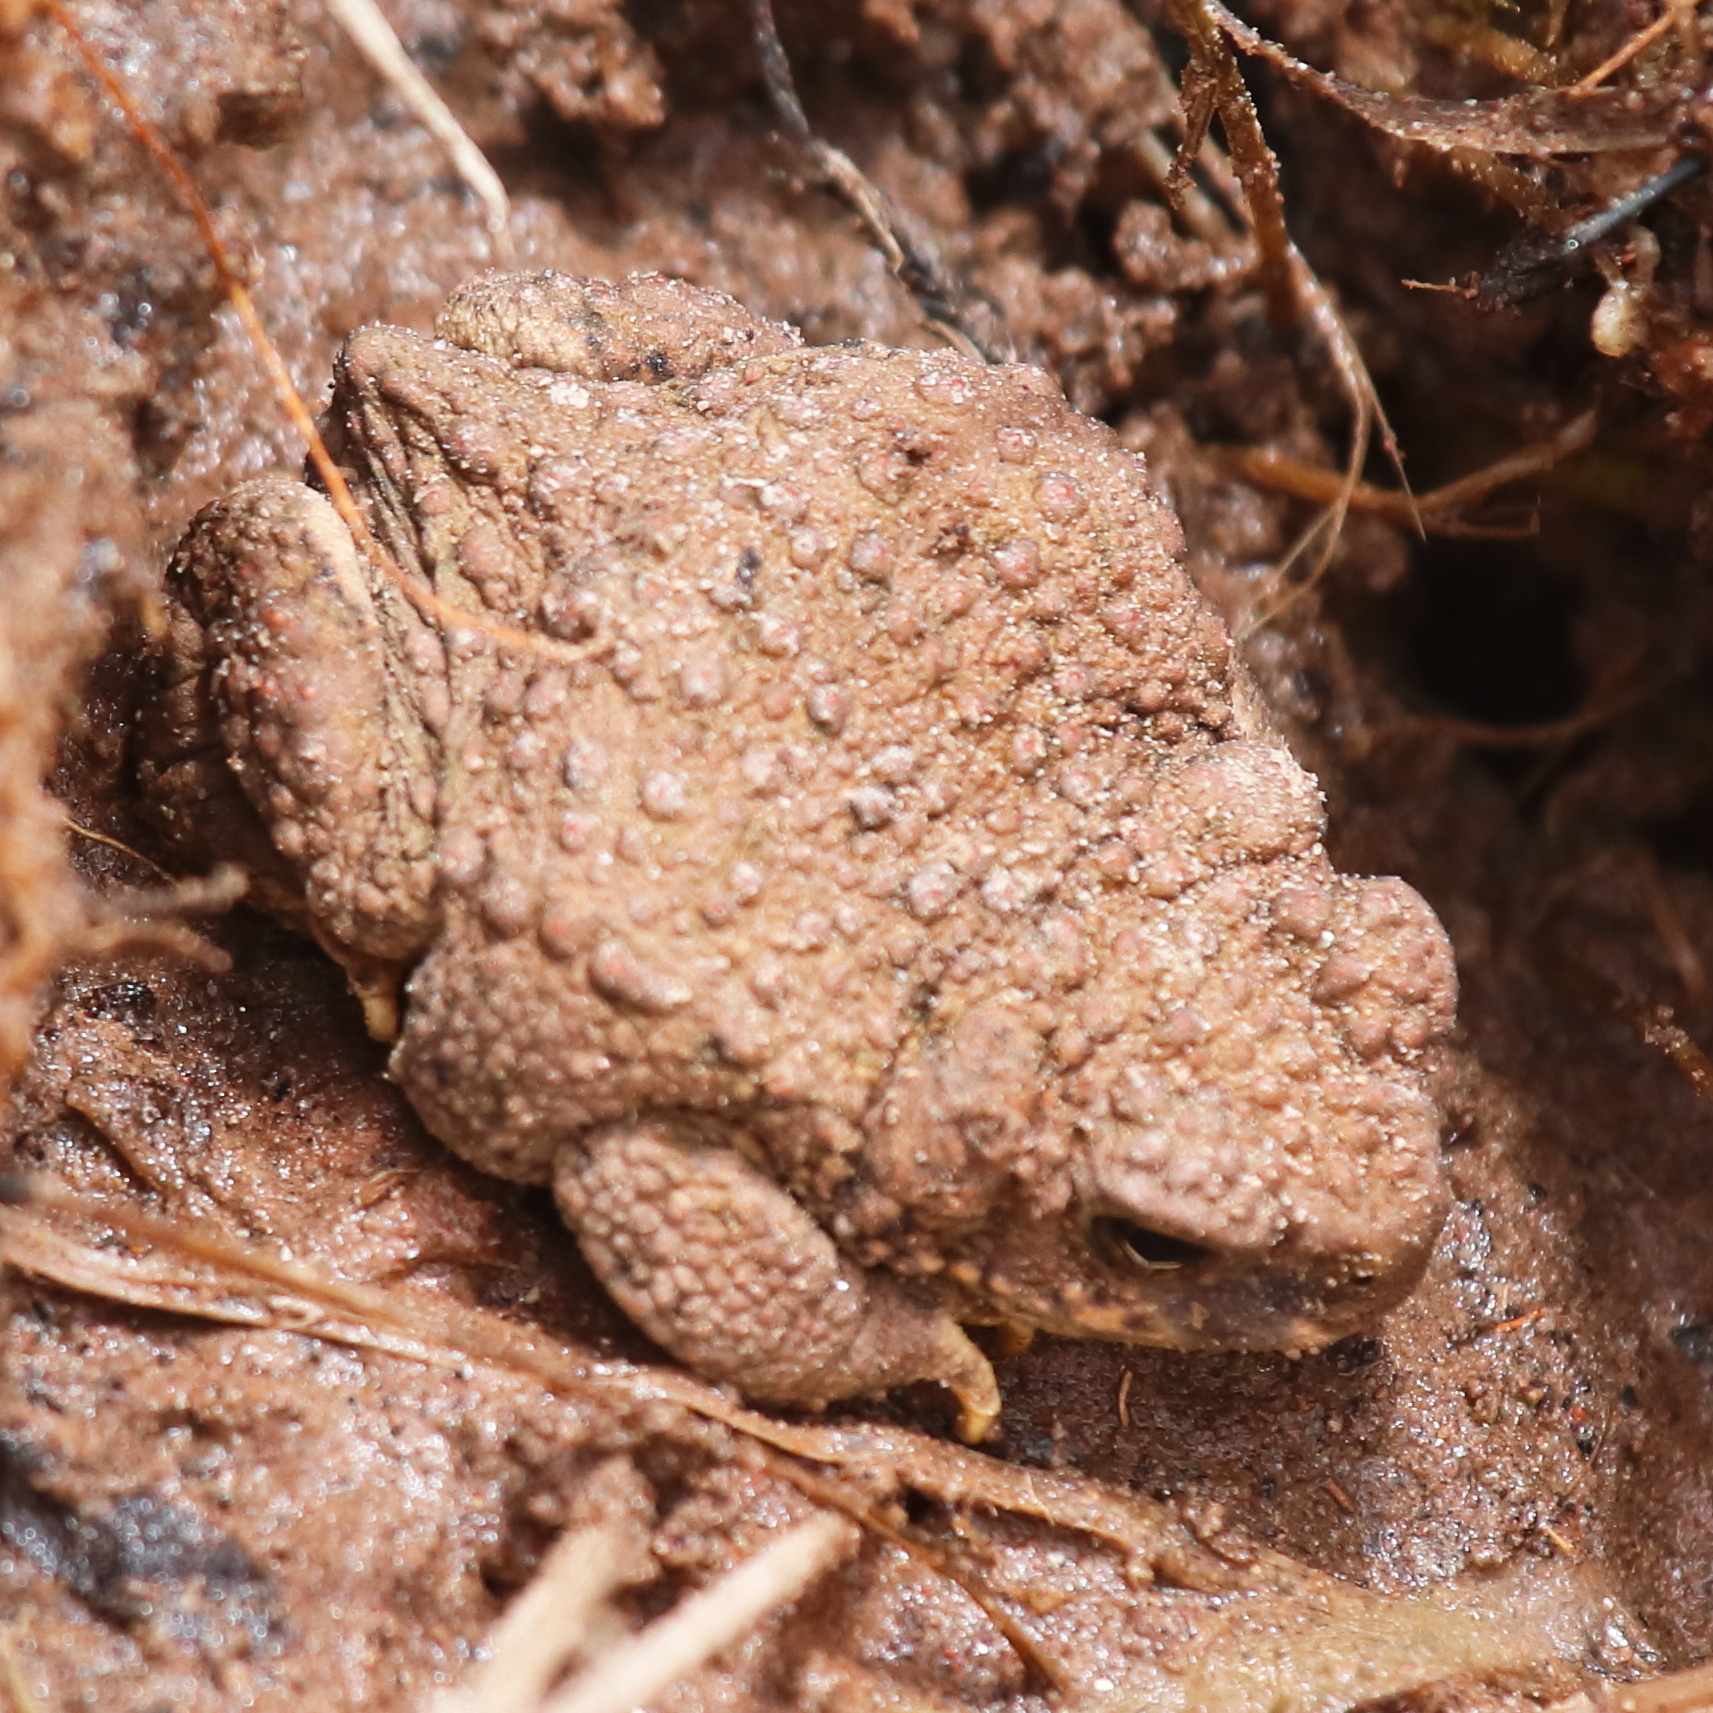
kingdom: Animalia
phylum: Chordata
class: Amphibia
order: Anura
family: Bufonidae
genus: Rhinella
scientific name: Rhinella spinulosa
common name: Warty toad
